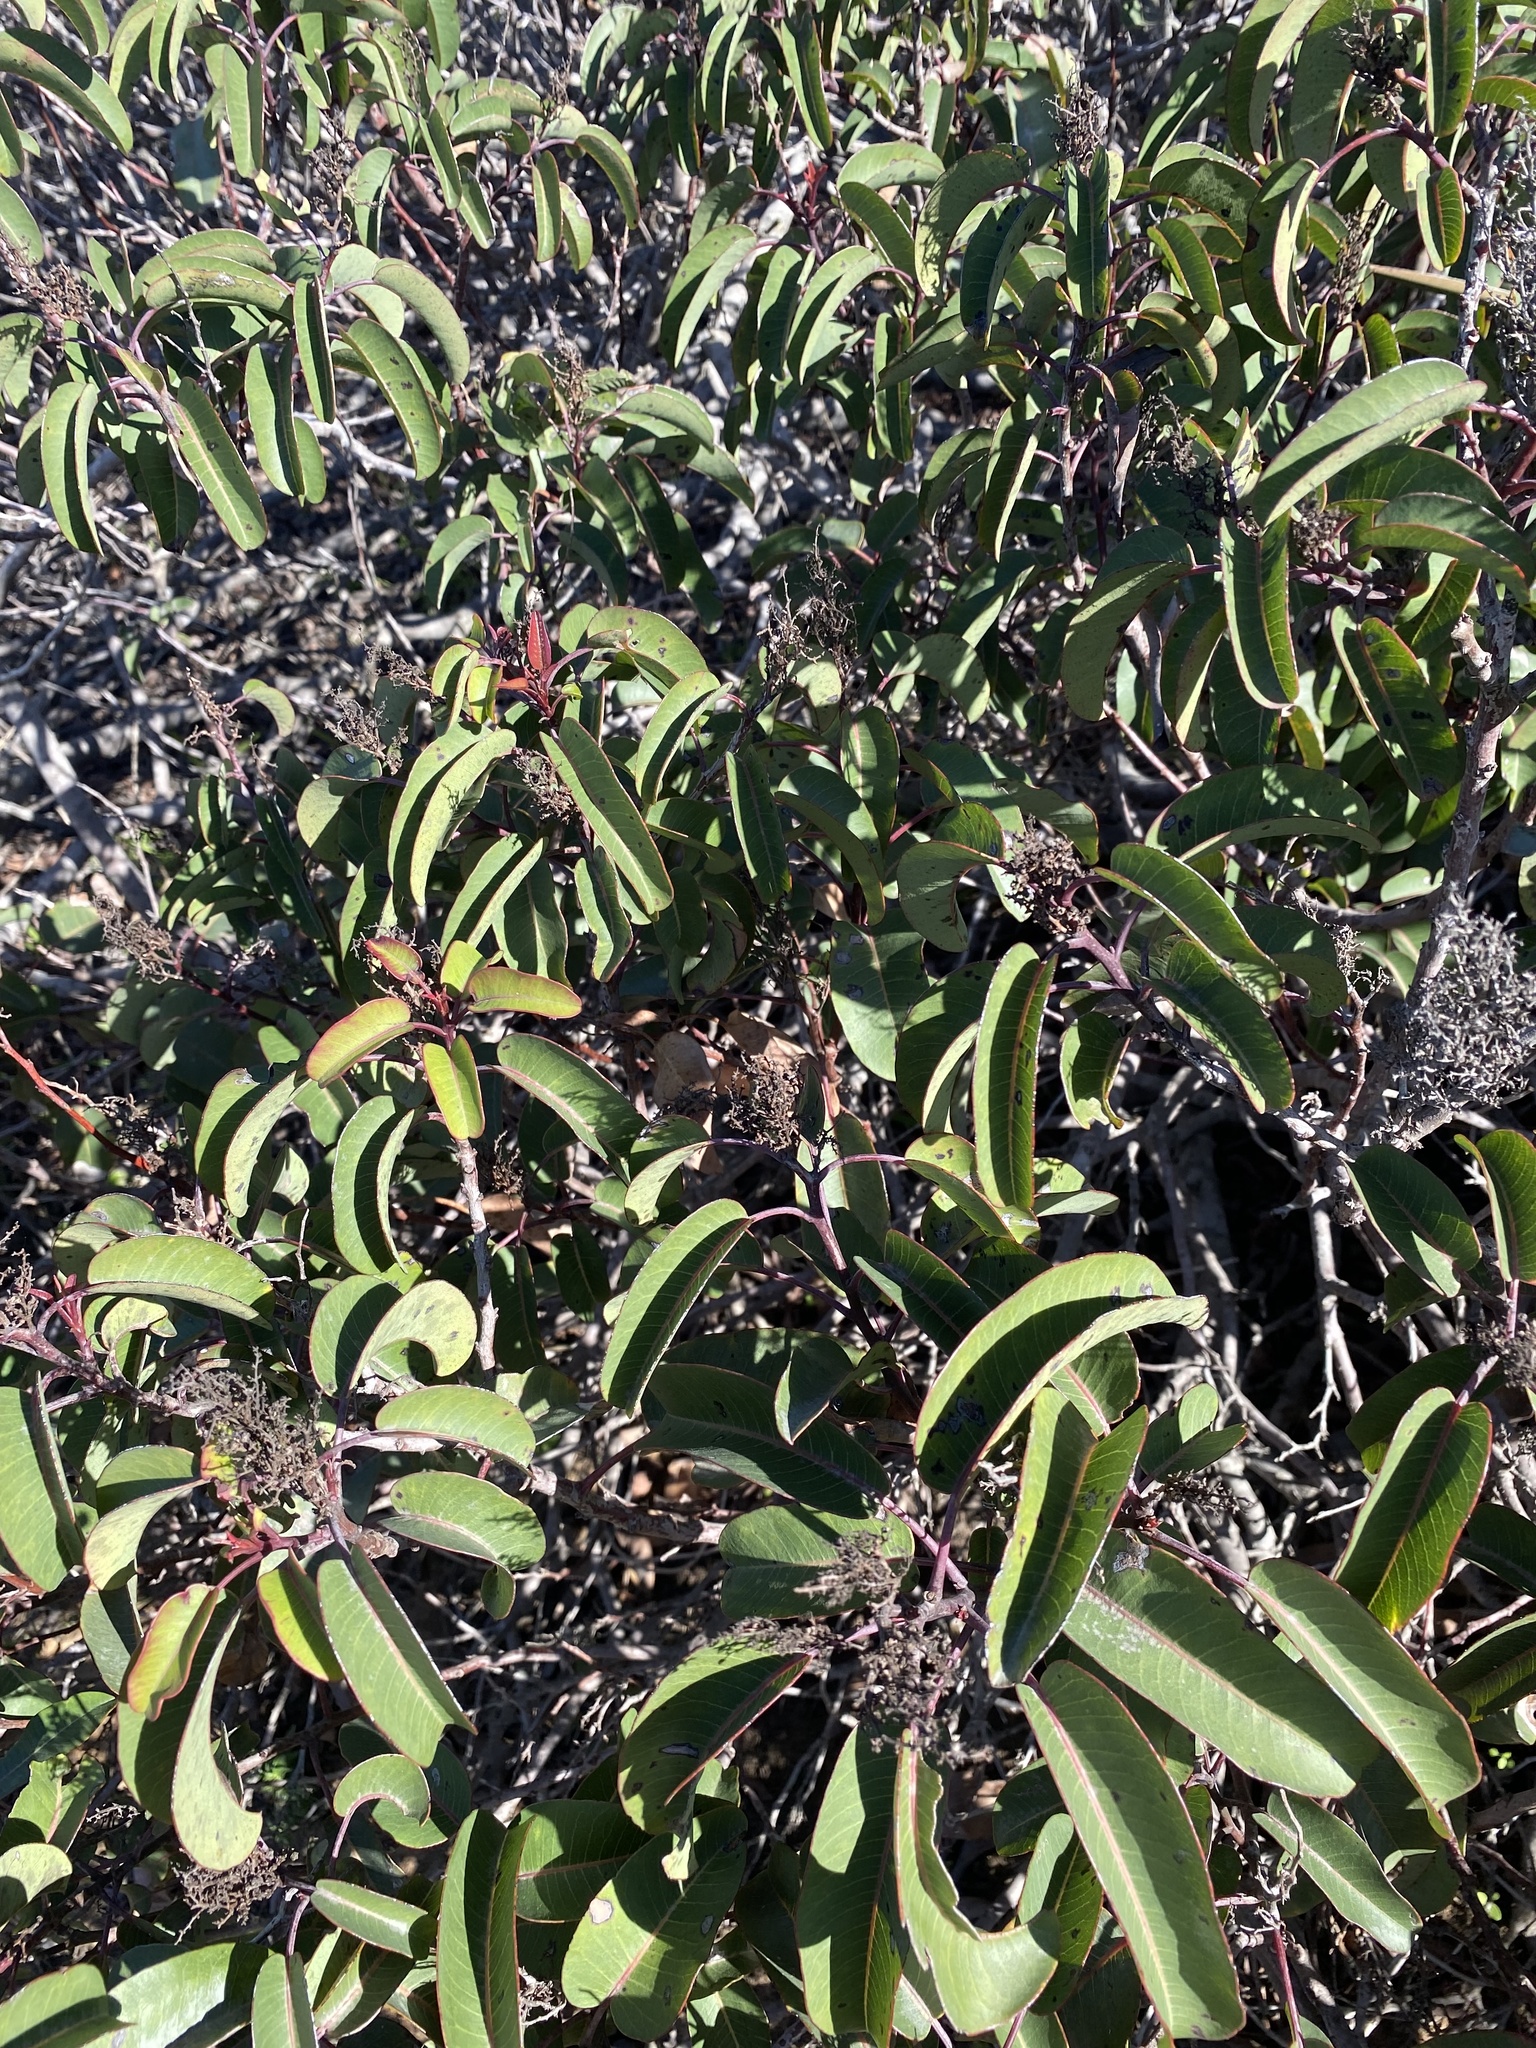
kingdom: Plantae
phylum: Tracheophyta
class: Magnoliopsida
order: Sapindales
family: Anacardiaceae
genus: Malosma
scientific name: Malosma laurina
